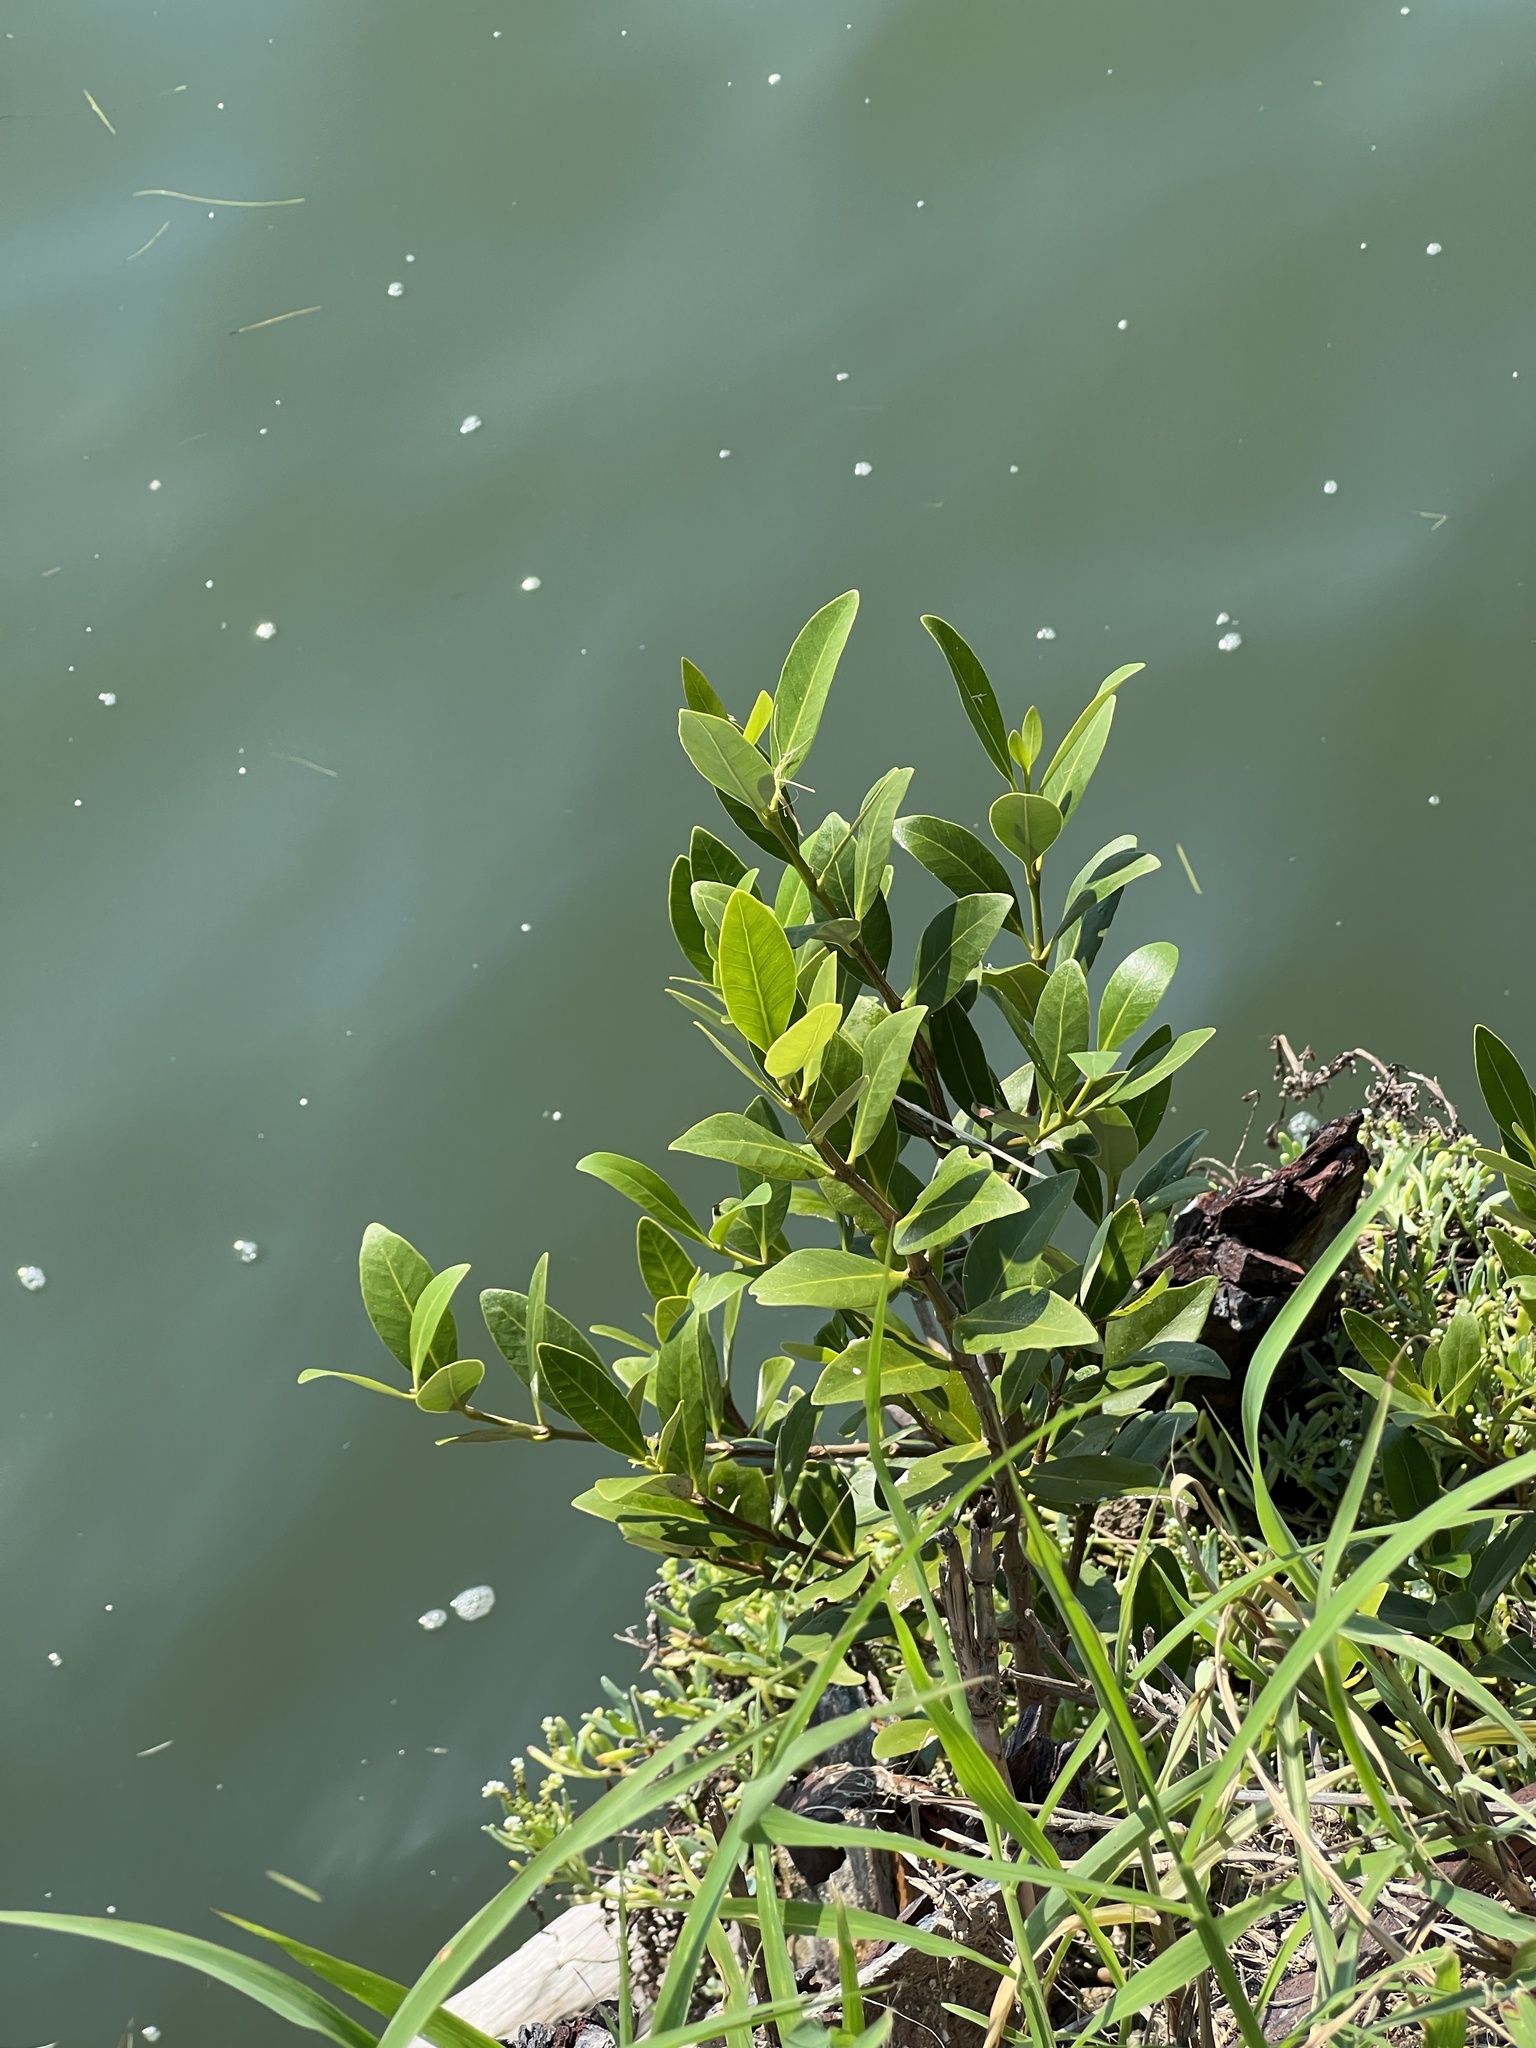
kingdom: Plantae
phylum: Tracheophyta
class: Magnoliopsida
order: Lamiales
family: Acanthaceae
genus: Avicennia
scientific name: Avicennia germinans
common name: Black mangrove
